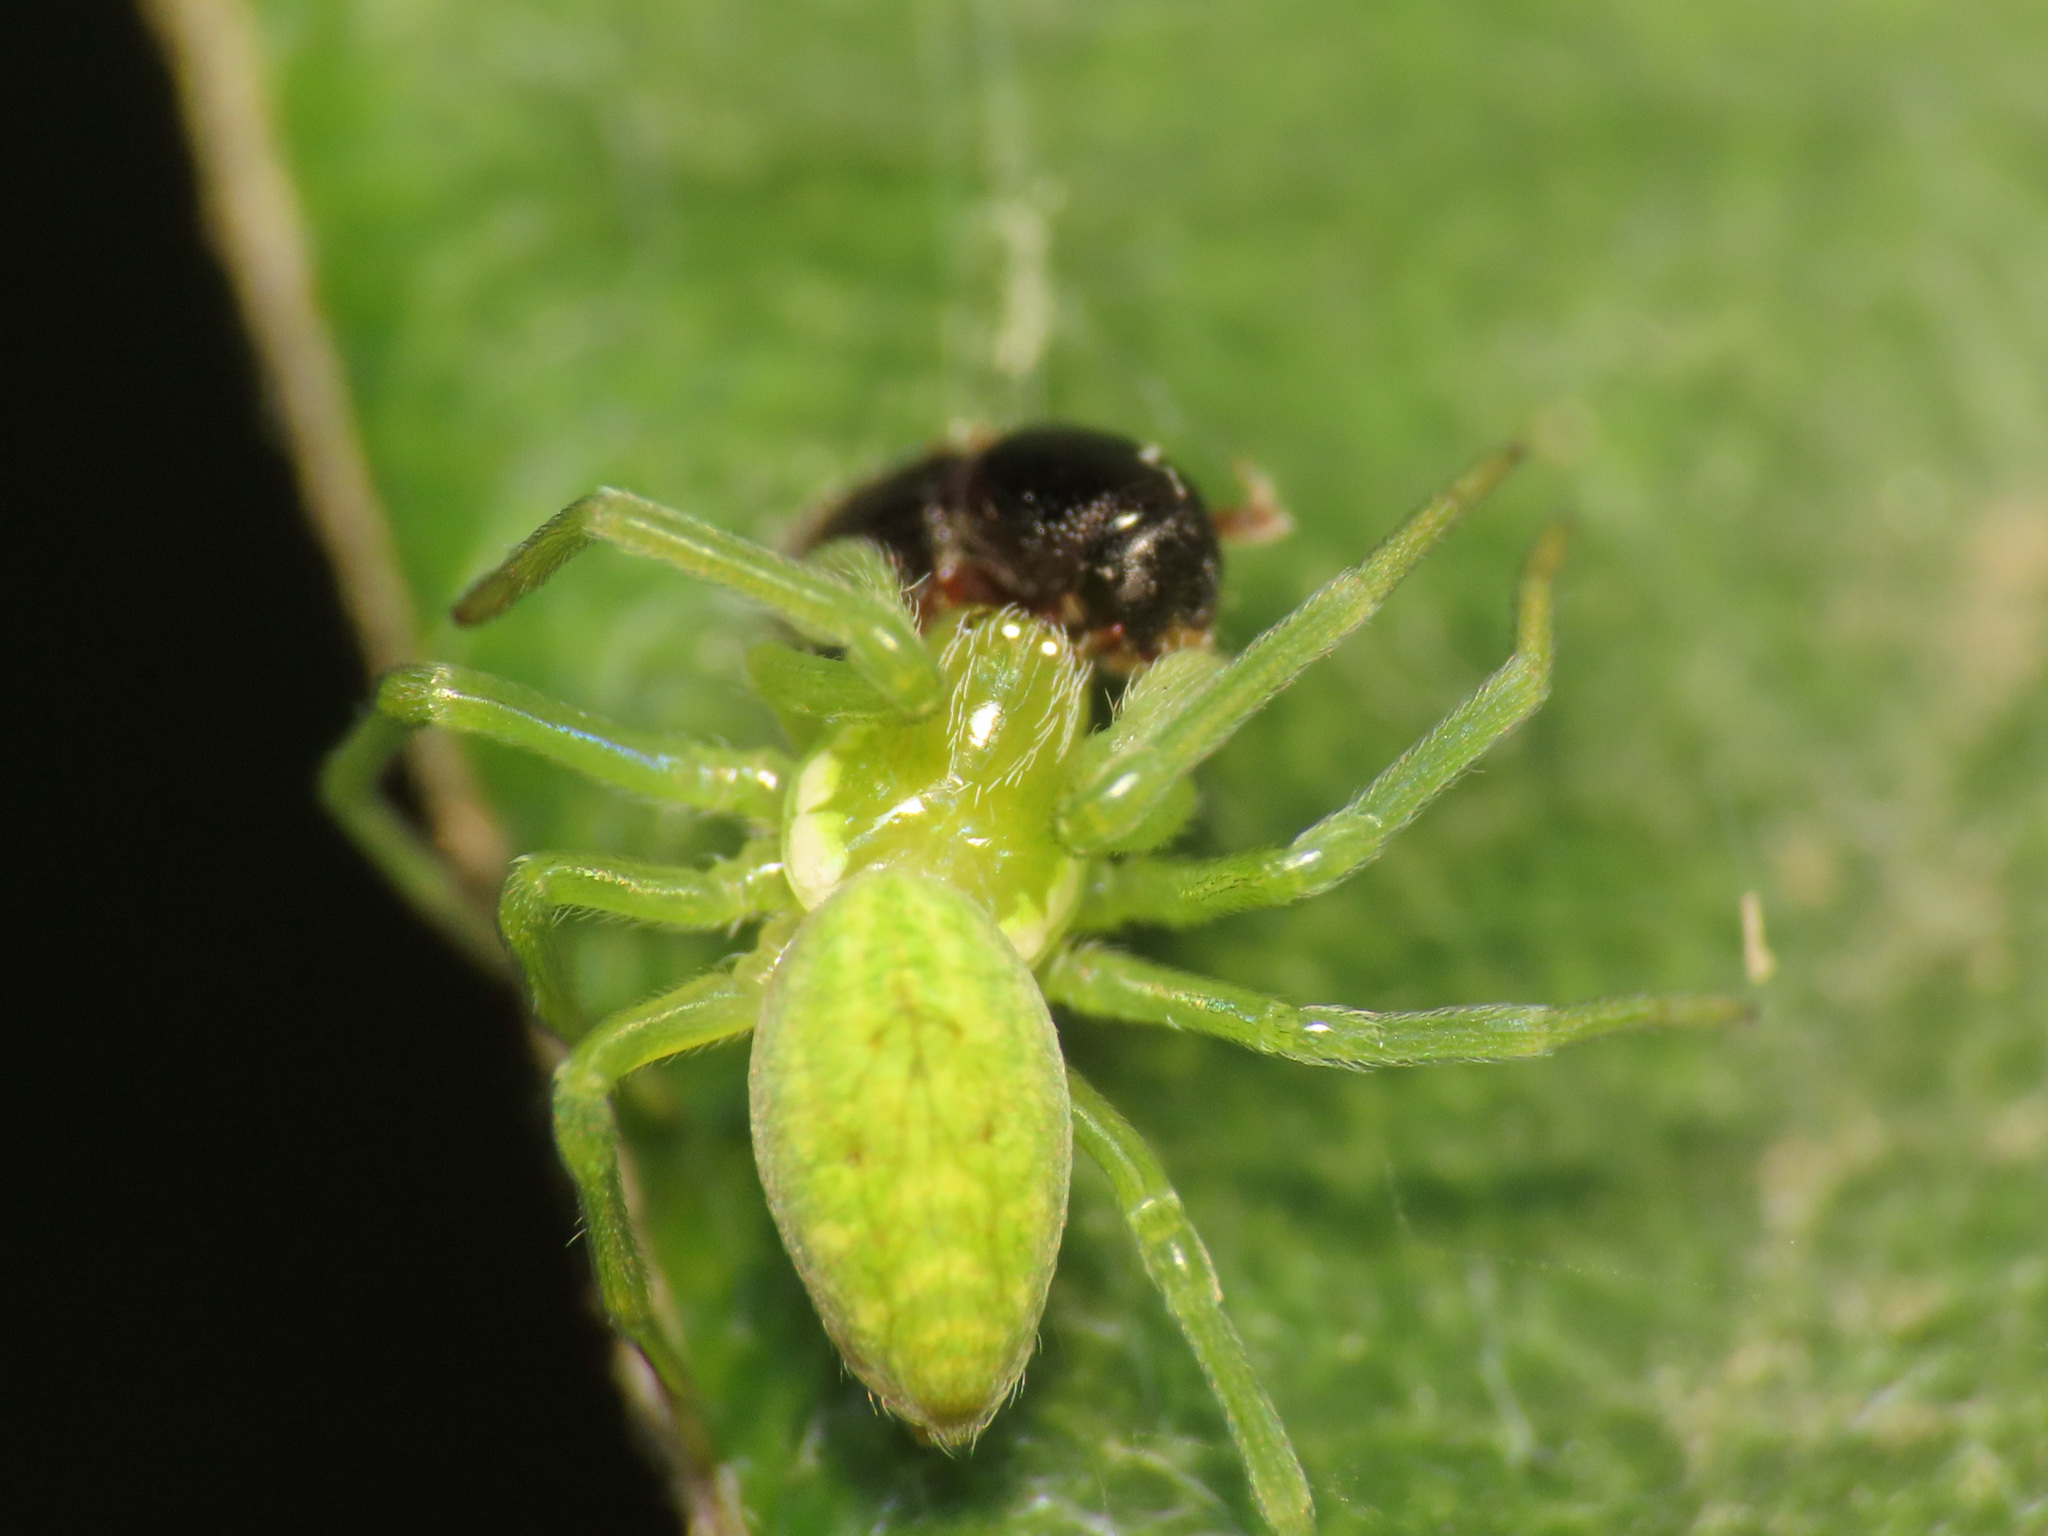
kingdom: Animalia
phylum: Arthropoda
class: Arachnida
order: Araneae
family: Dictynidae
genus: Nigma
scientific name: Nigma walckenaeri
